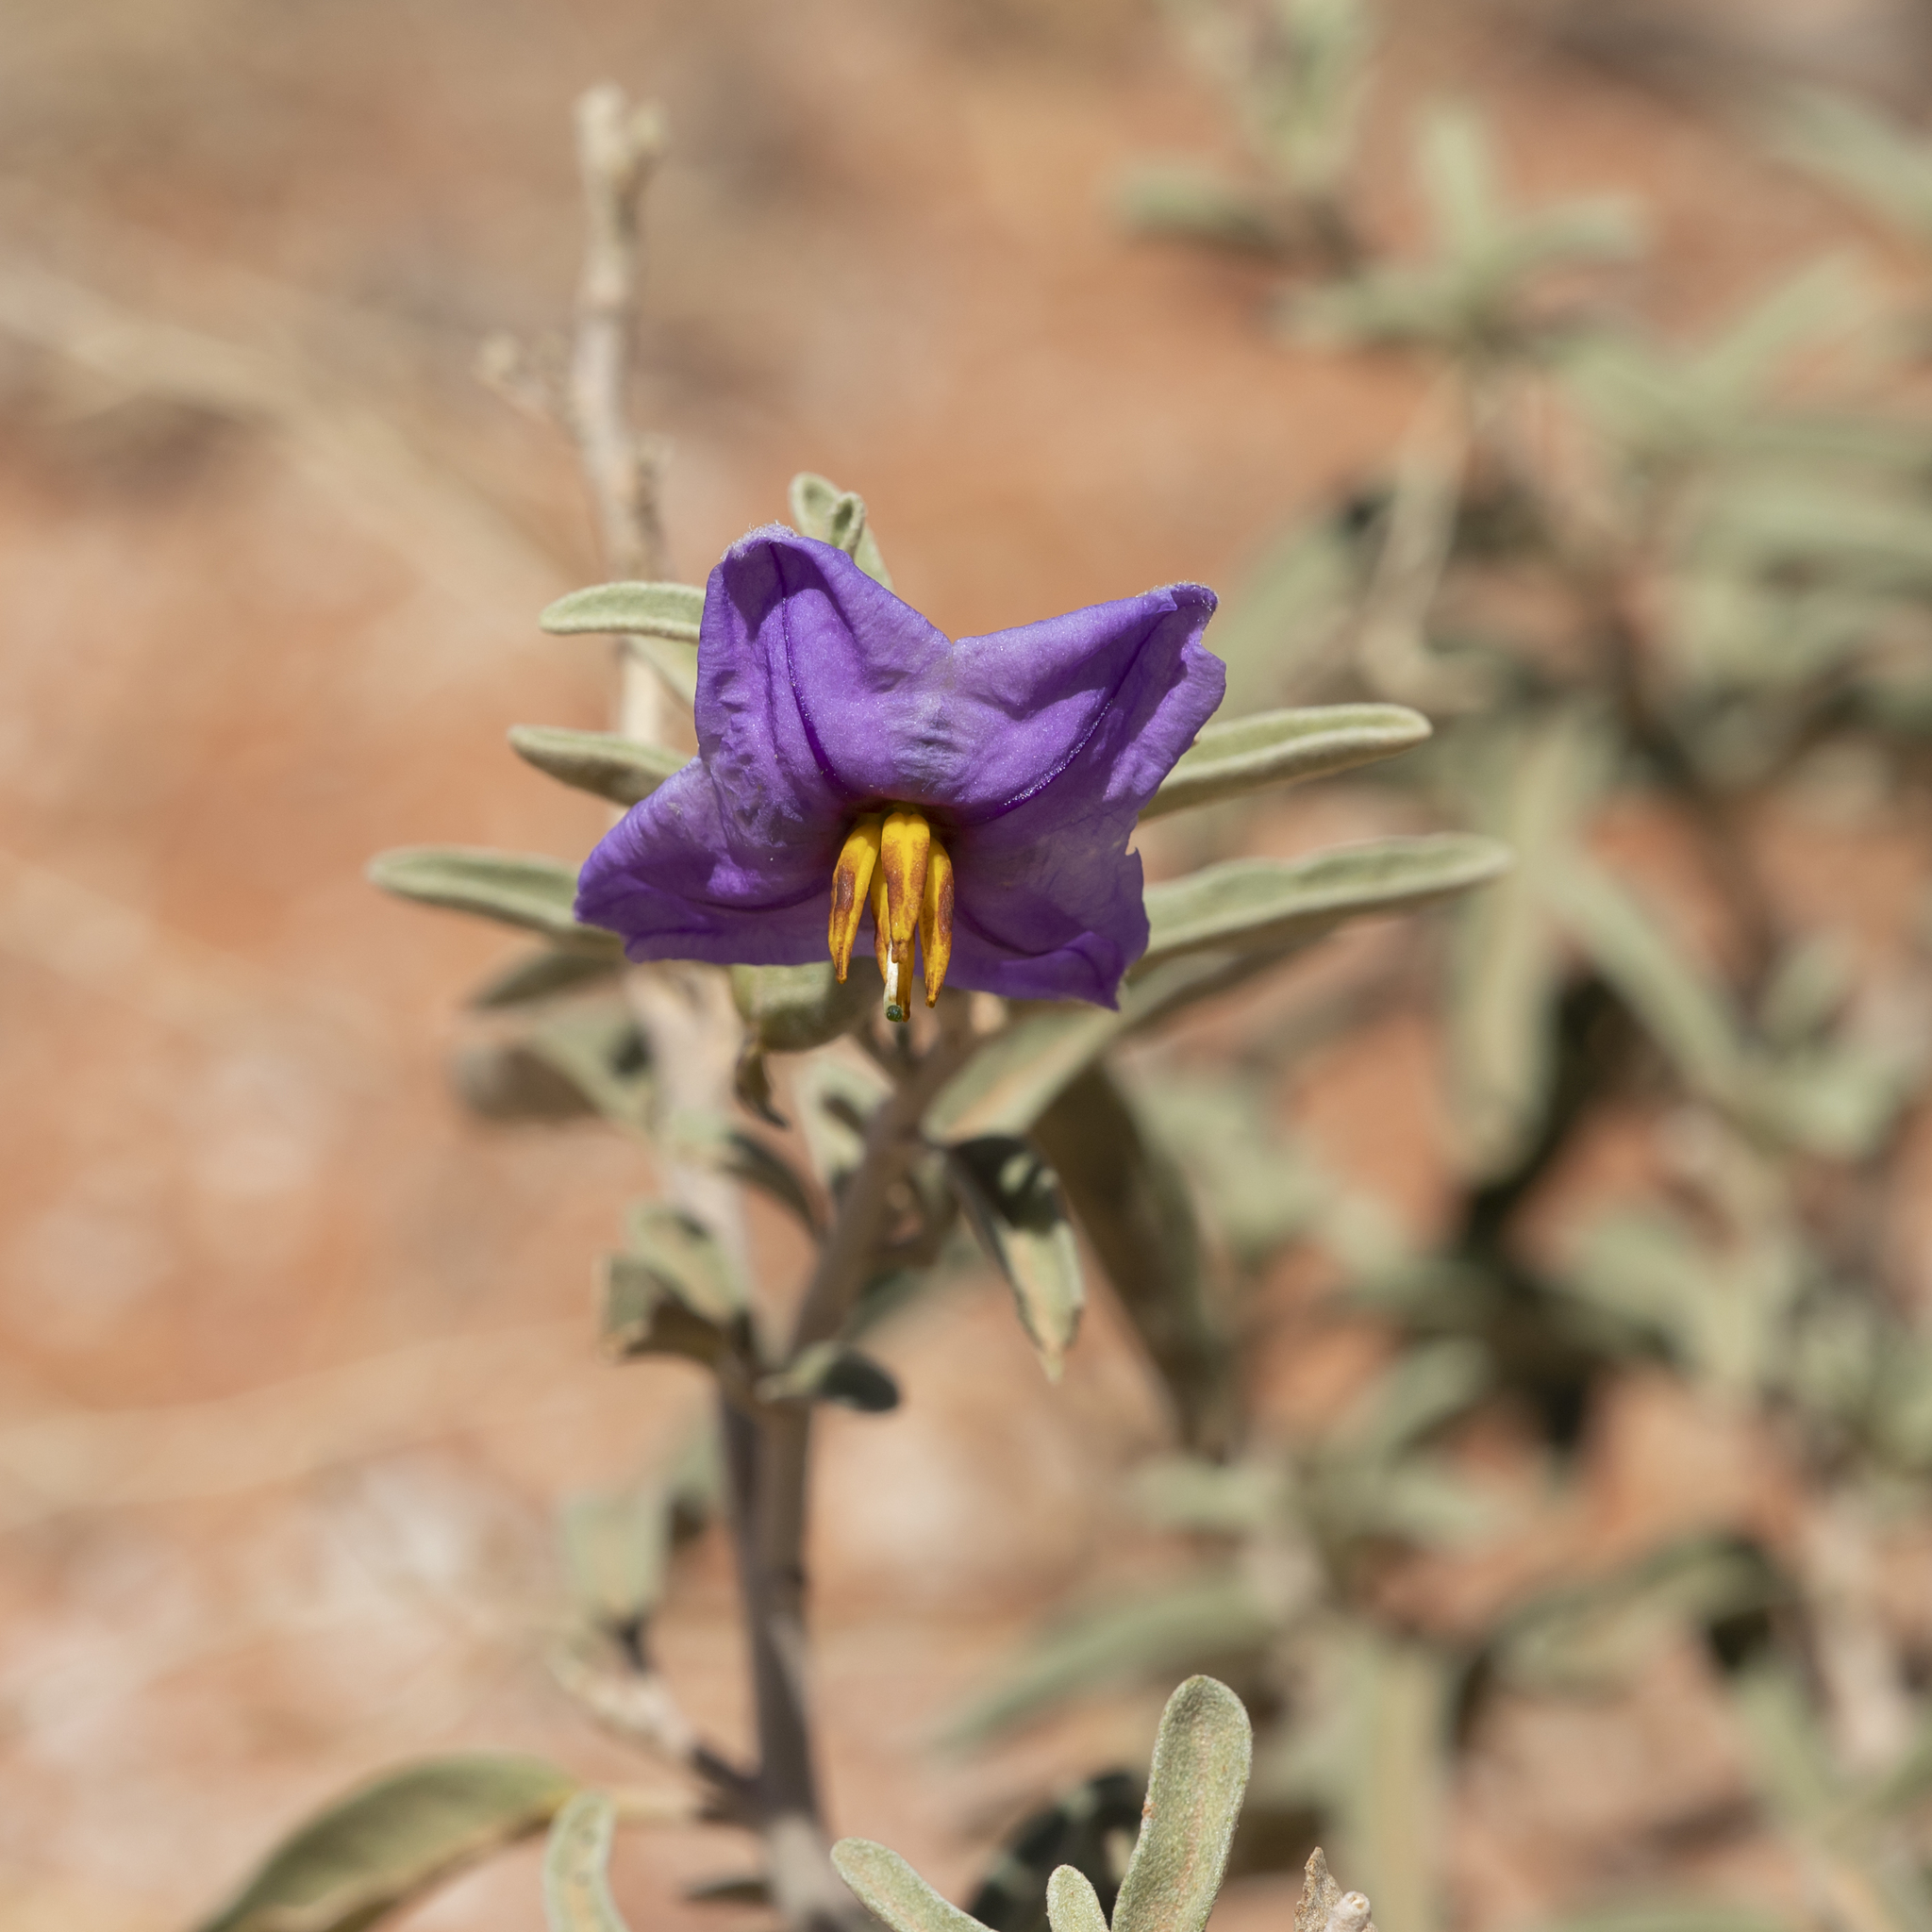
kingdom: Plantae
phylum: Tracheophyta
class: Magnoliopsida
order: Solanales
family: Solanaceae
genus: Solanum
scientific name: Solanum coactiliferum
